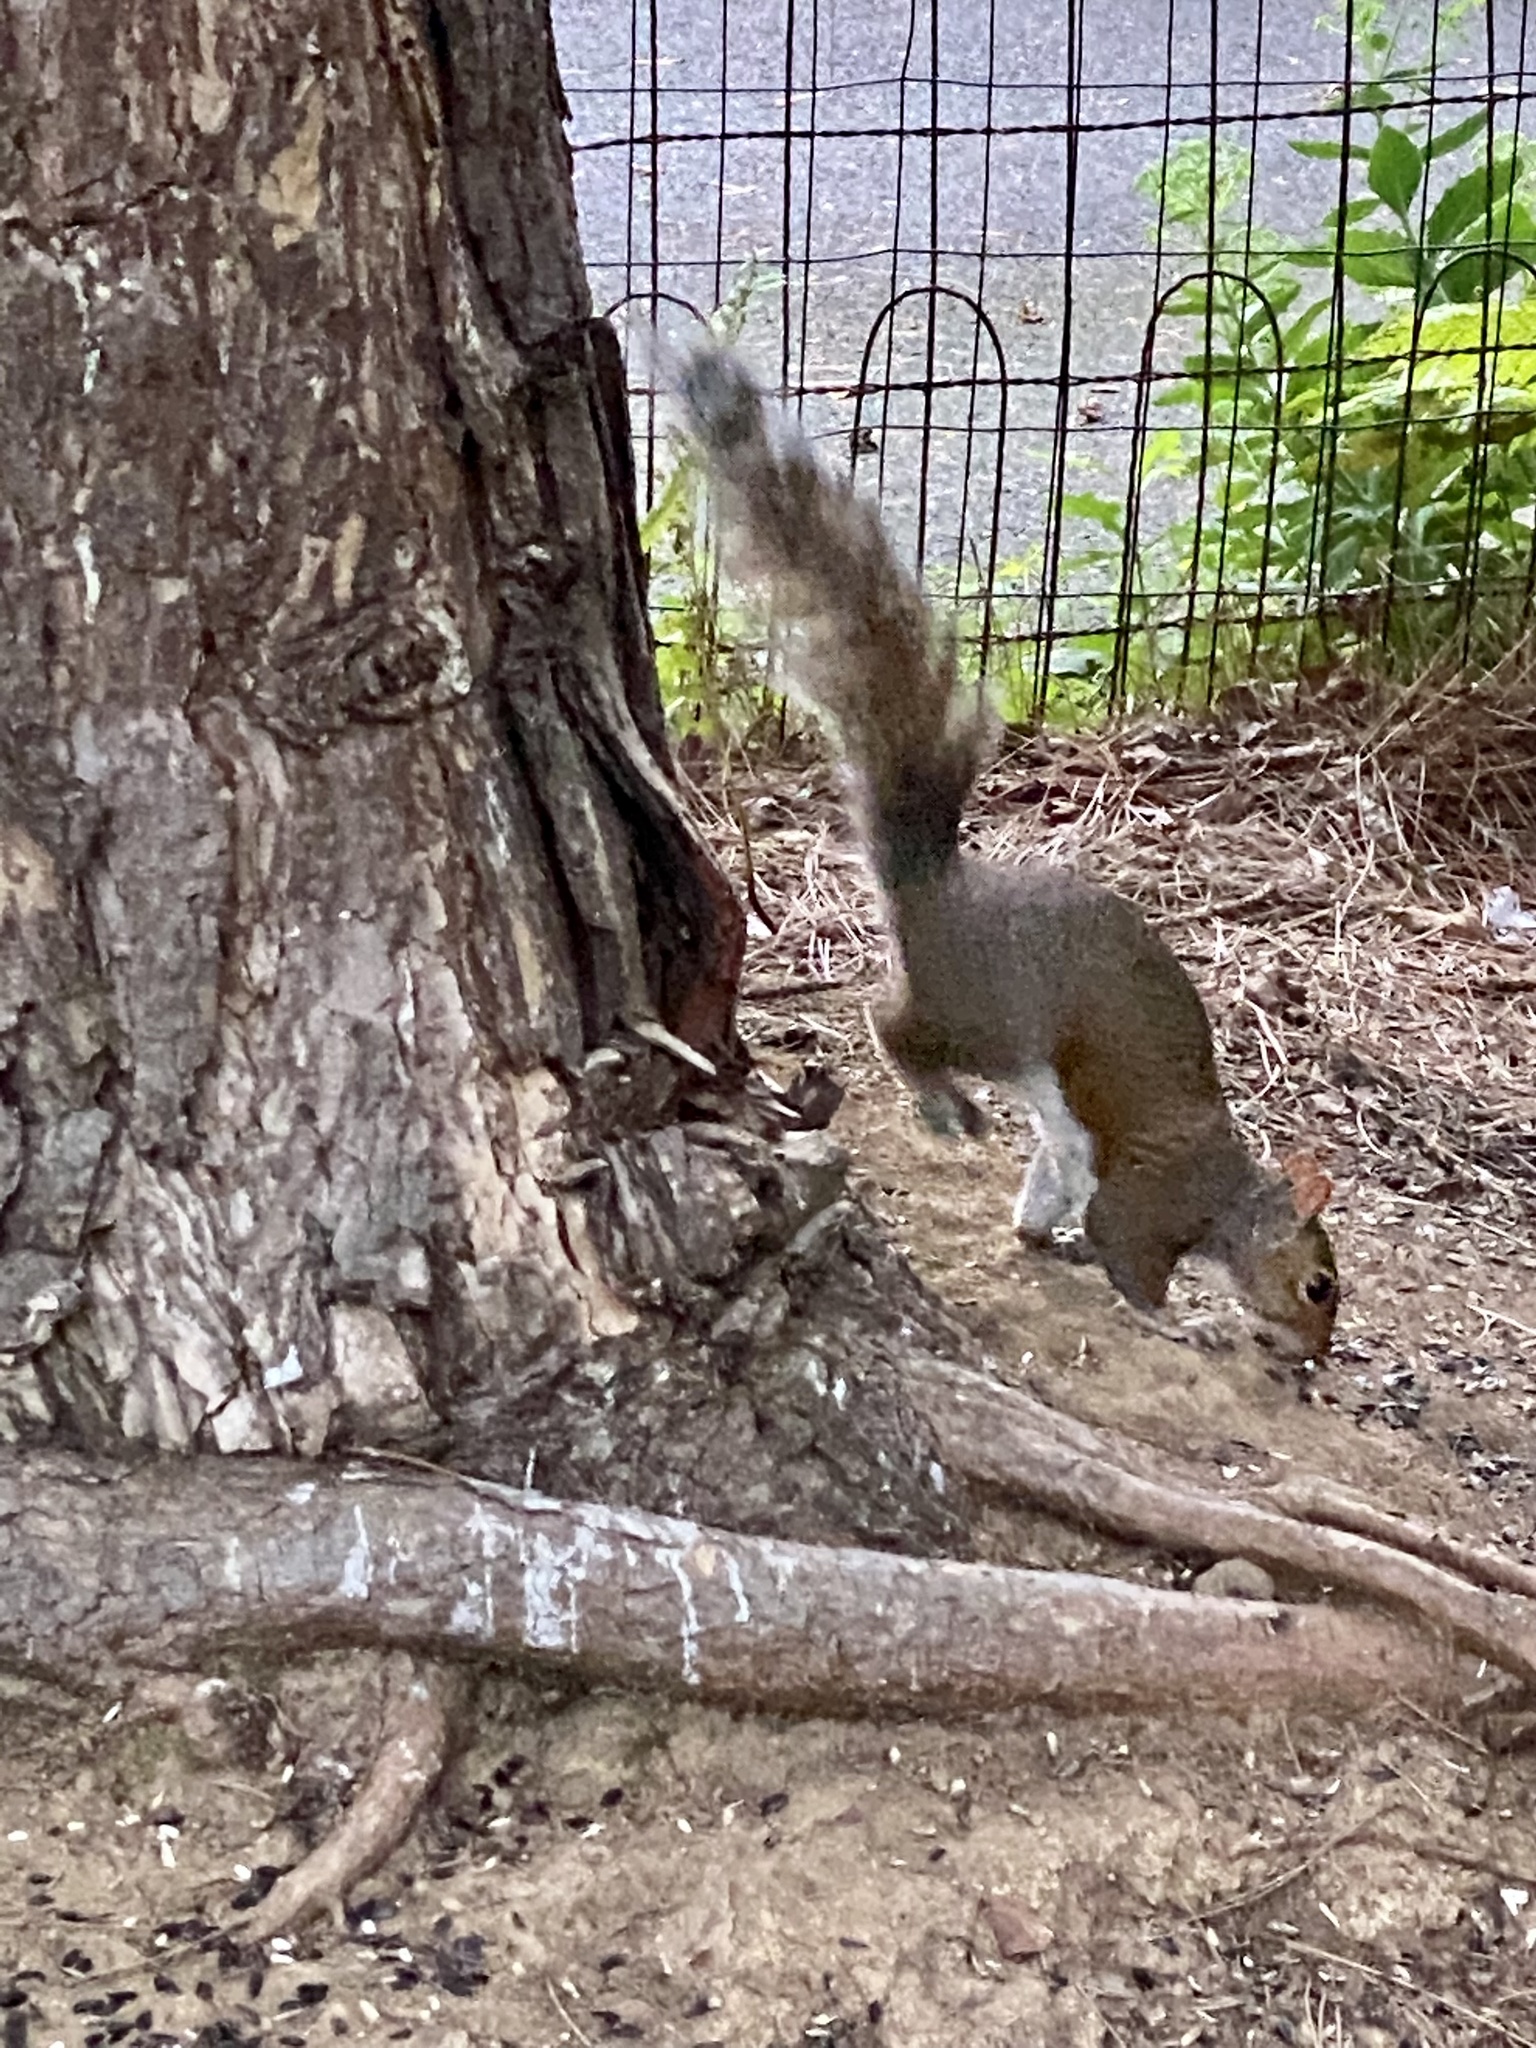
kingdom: Animalia
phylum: Chordata
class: Mammalia
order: Rodentia
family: Sciuridae
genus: Sciurus
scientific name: Sciurus carolinensis
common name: Eastern gray squirrel
